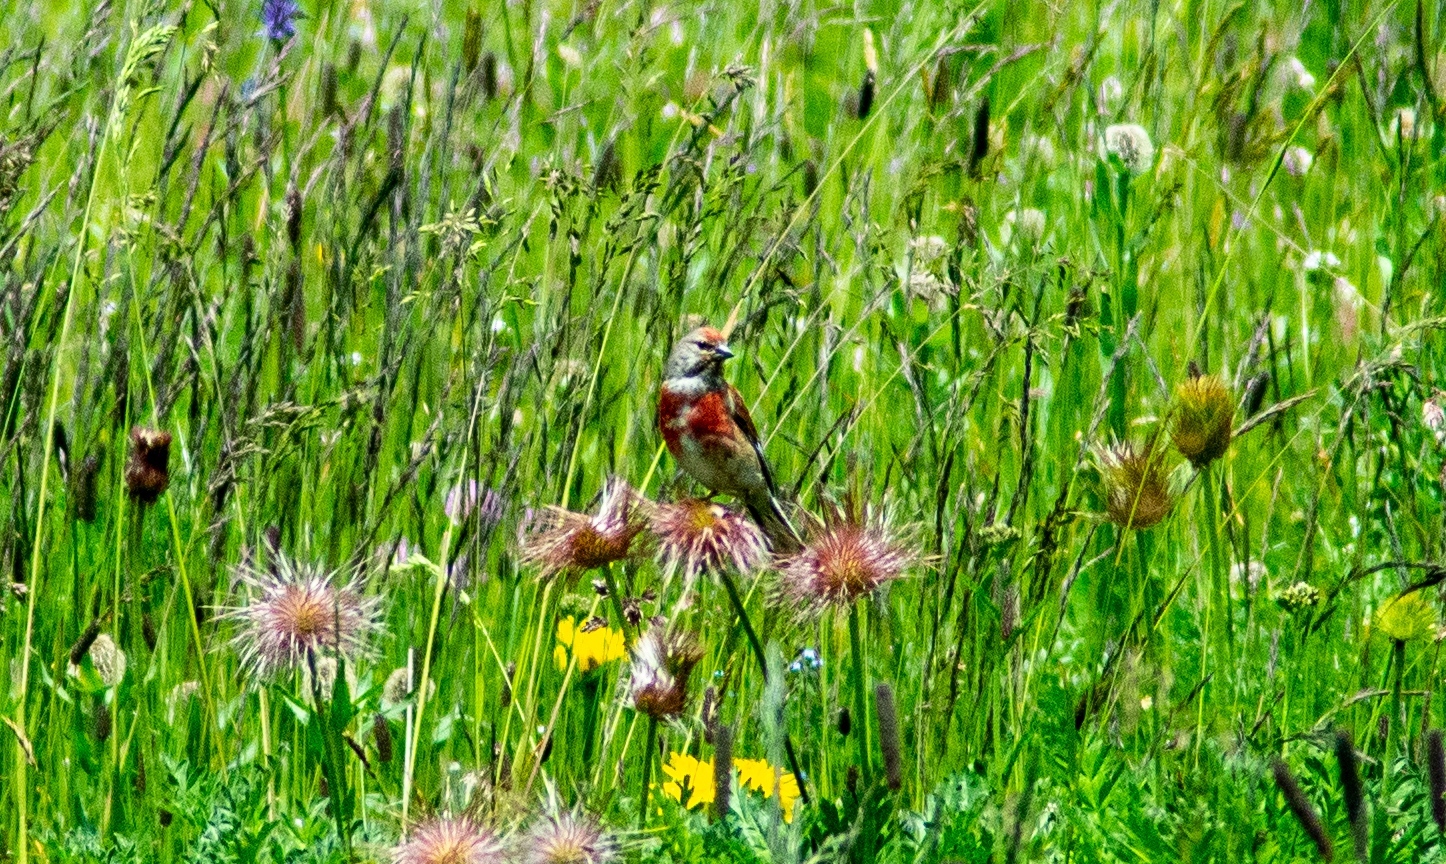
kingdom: Animalia
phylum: Chordata
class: Aves
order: Passeriformes
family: Fringillidae
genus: Linaria
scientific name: Linaria cannabina
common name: Common linnet
